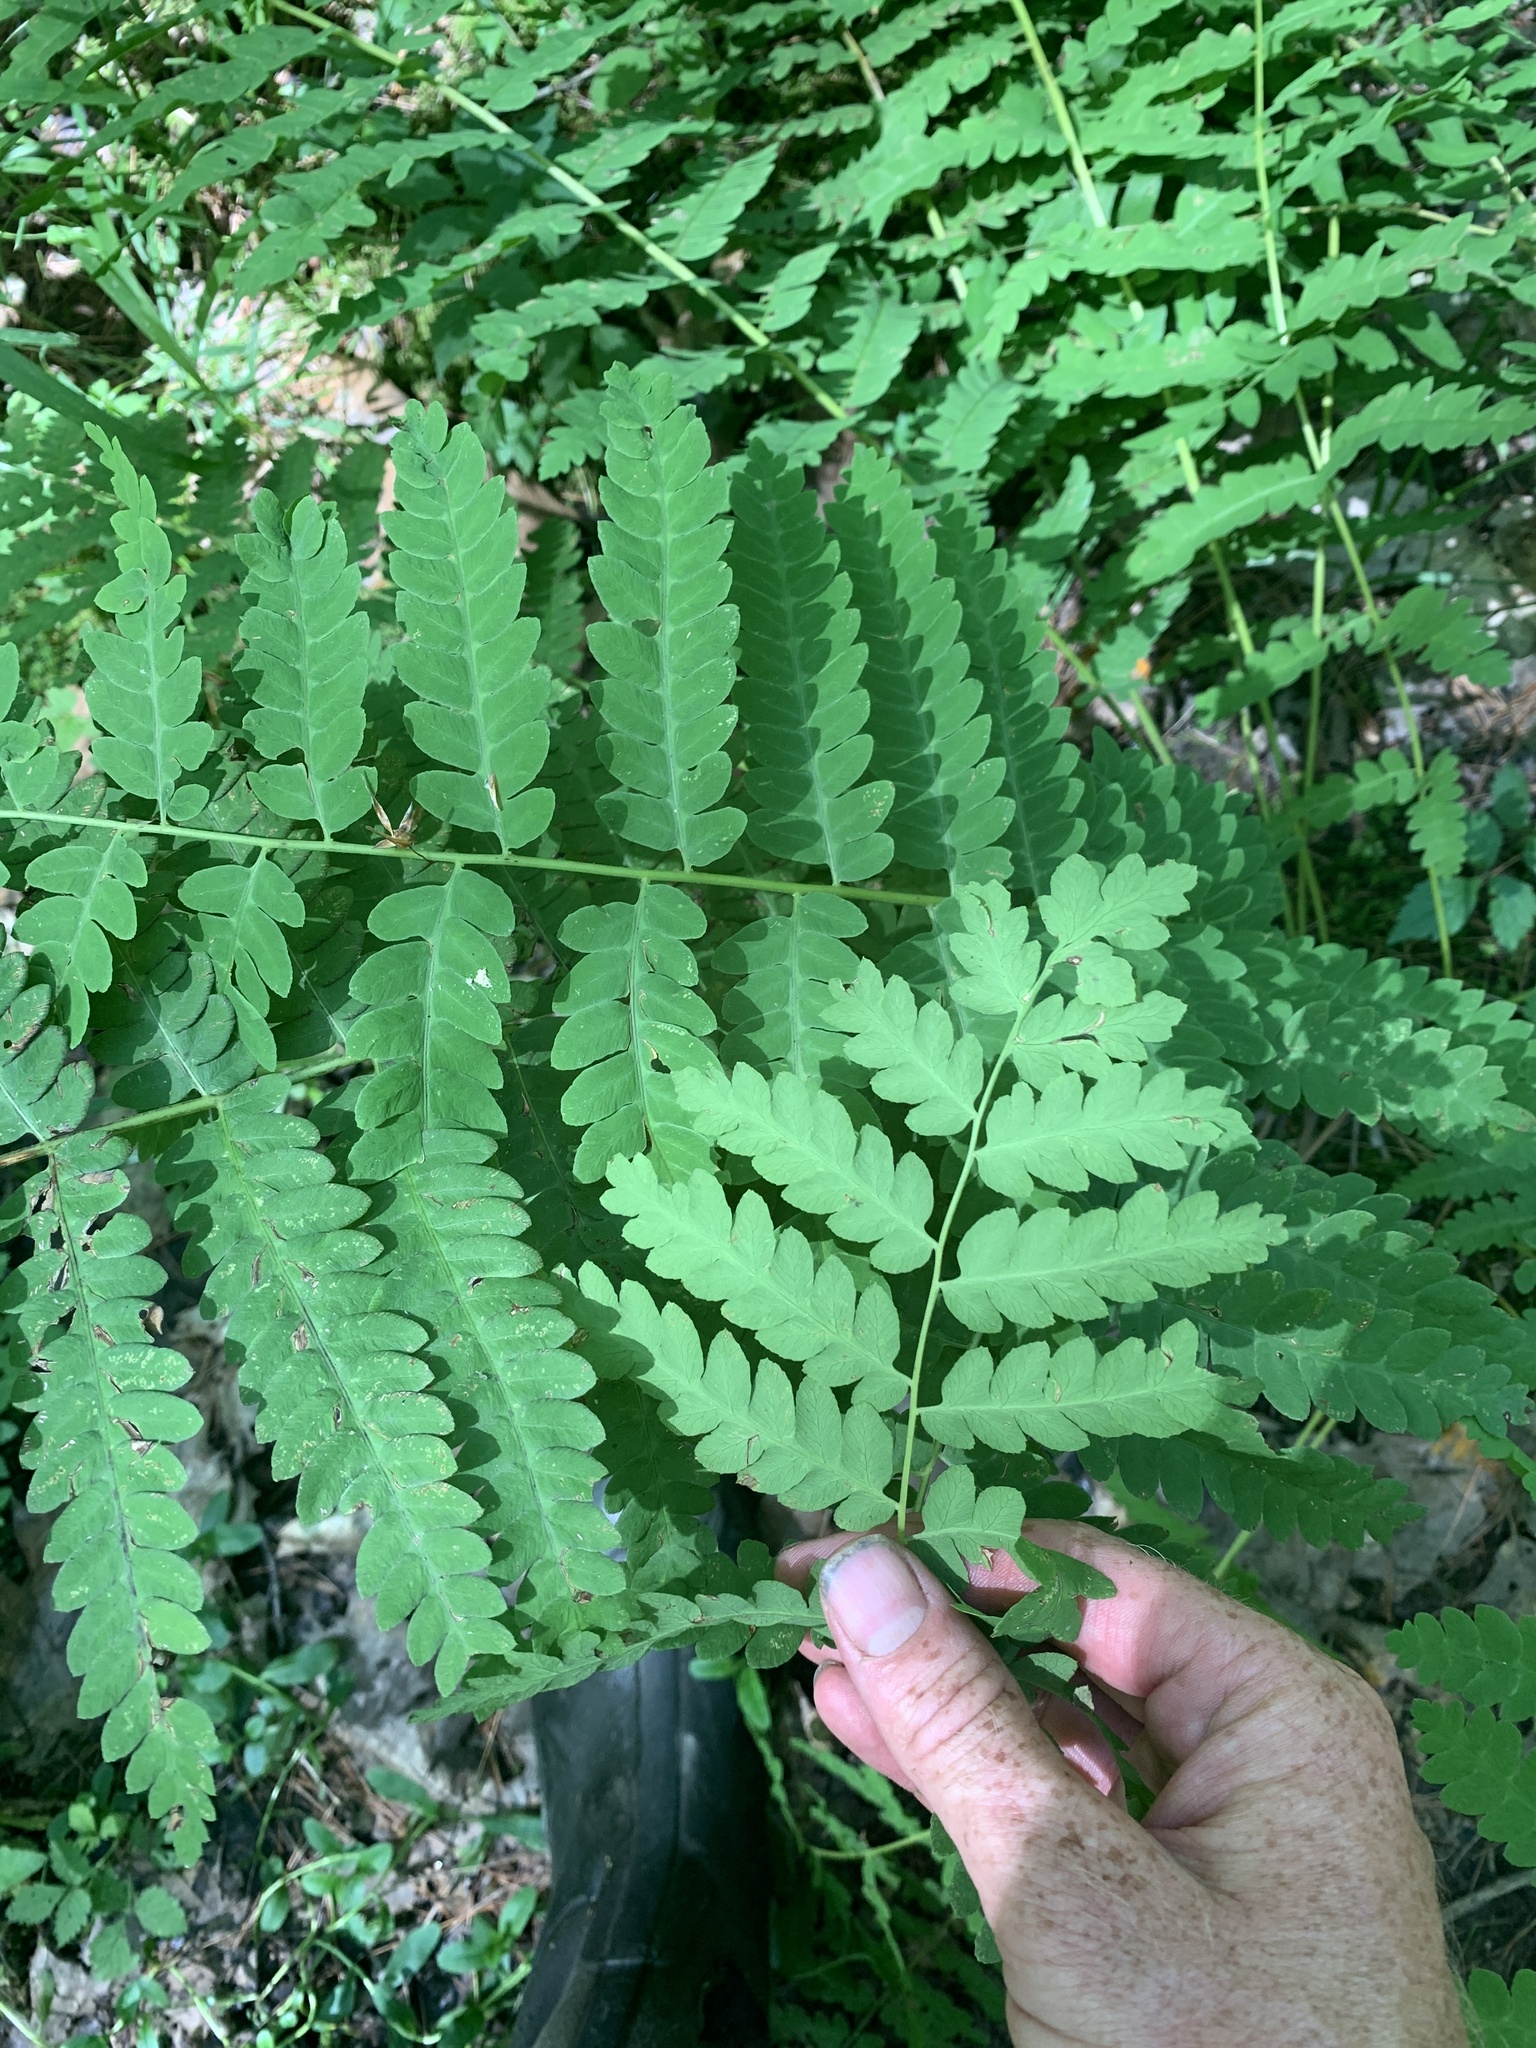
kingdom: Plantae
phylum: Tracheophyta
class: Polypodiopsida
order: Osmundales
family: Osmundaceae
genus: Claytosmunda
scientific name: Claytosmunda claytoniana
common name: Clayton's fern
